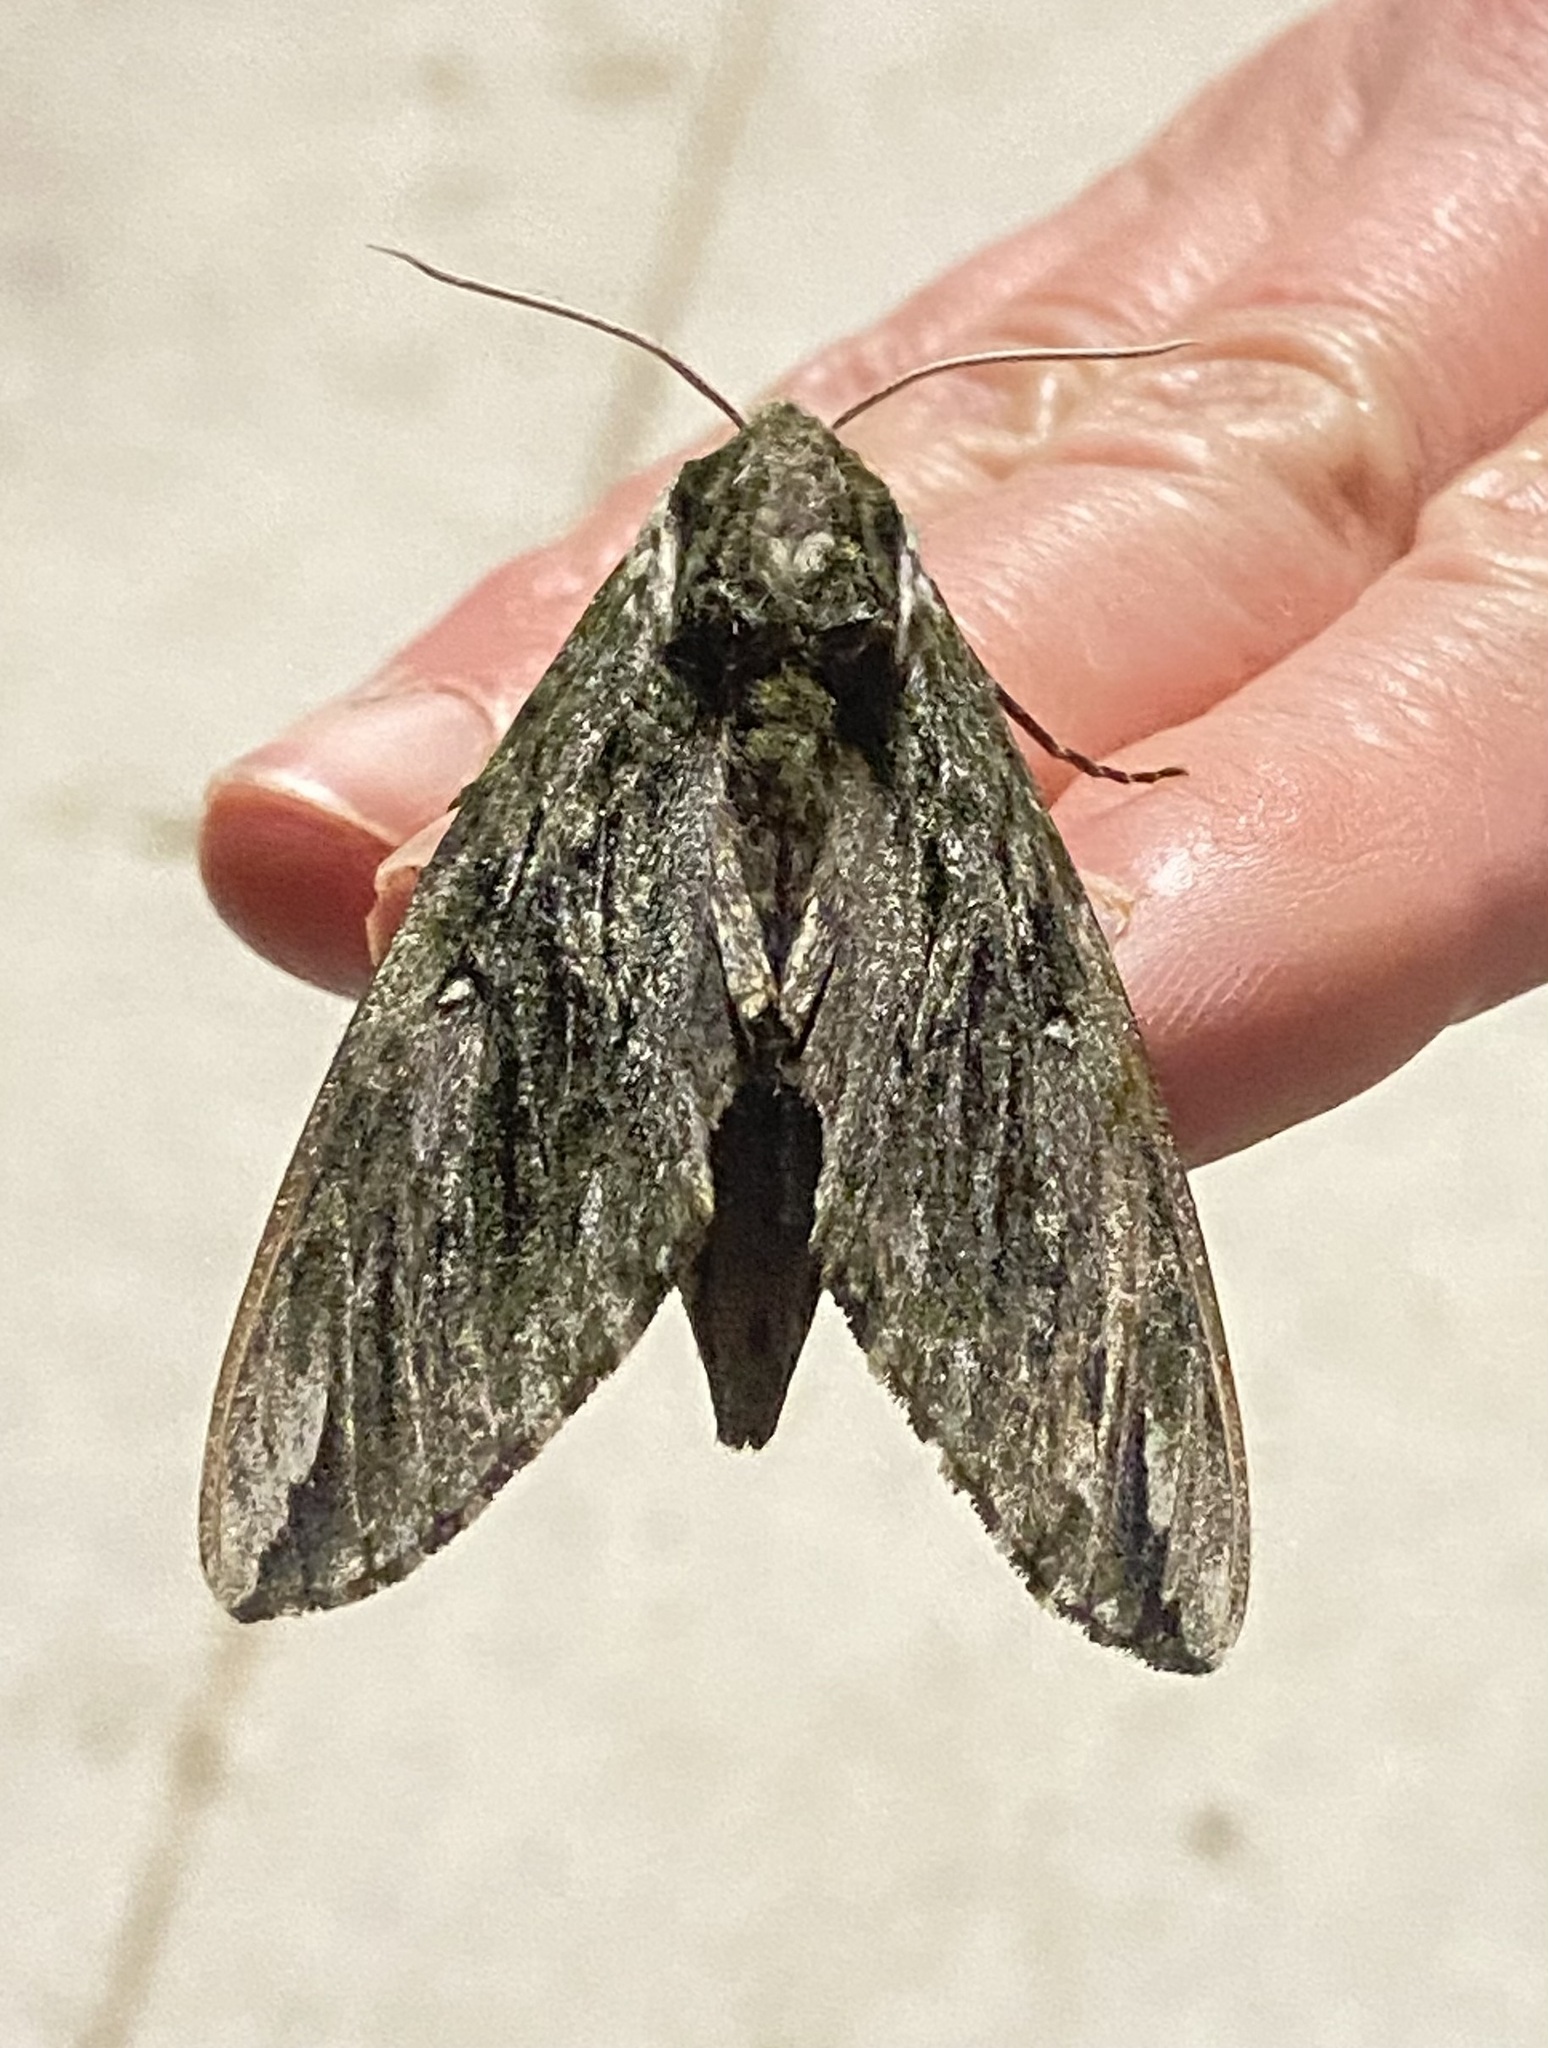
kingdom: Animalia
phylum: Arthropoda
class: Insecta
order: Lepidoptera
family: Sphingidae
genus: Ceratomia
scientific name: Ceratomia hageni
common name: Hagen's sphinx
